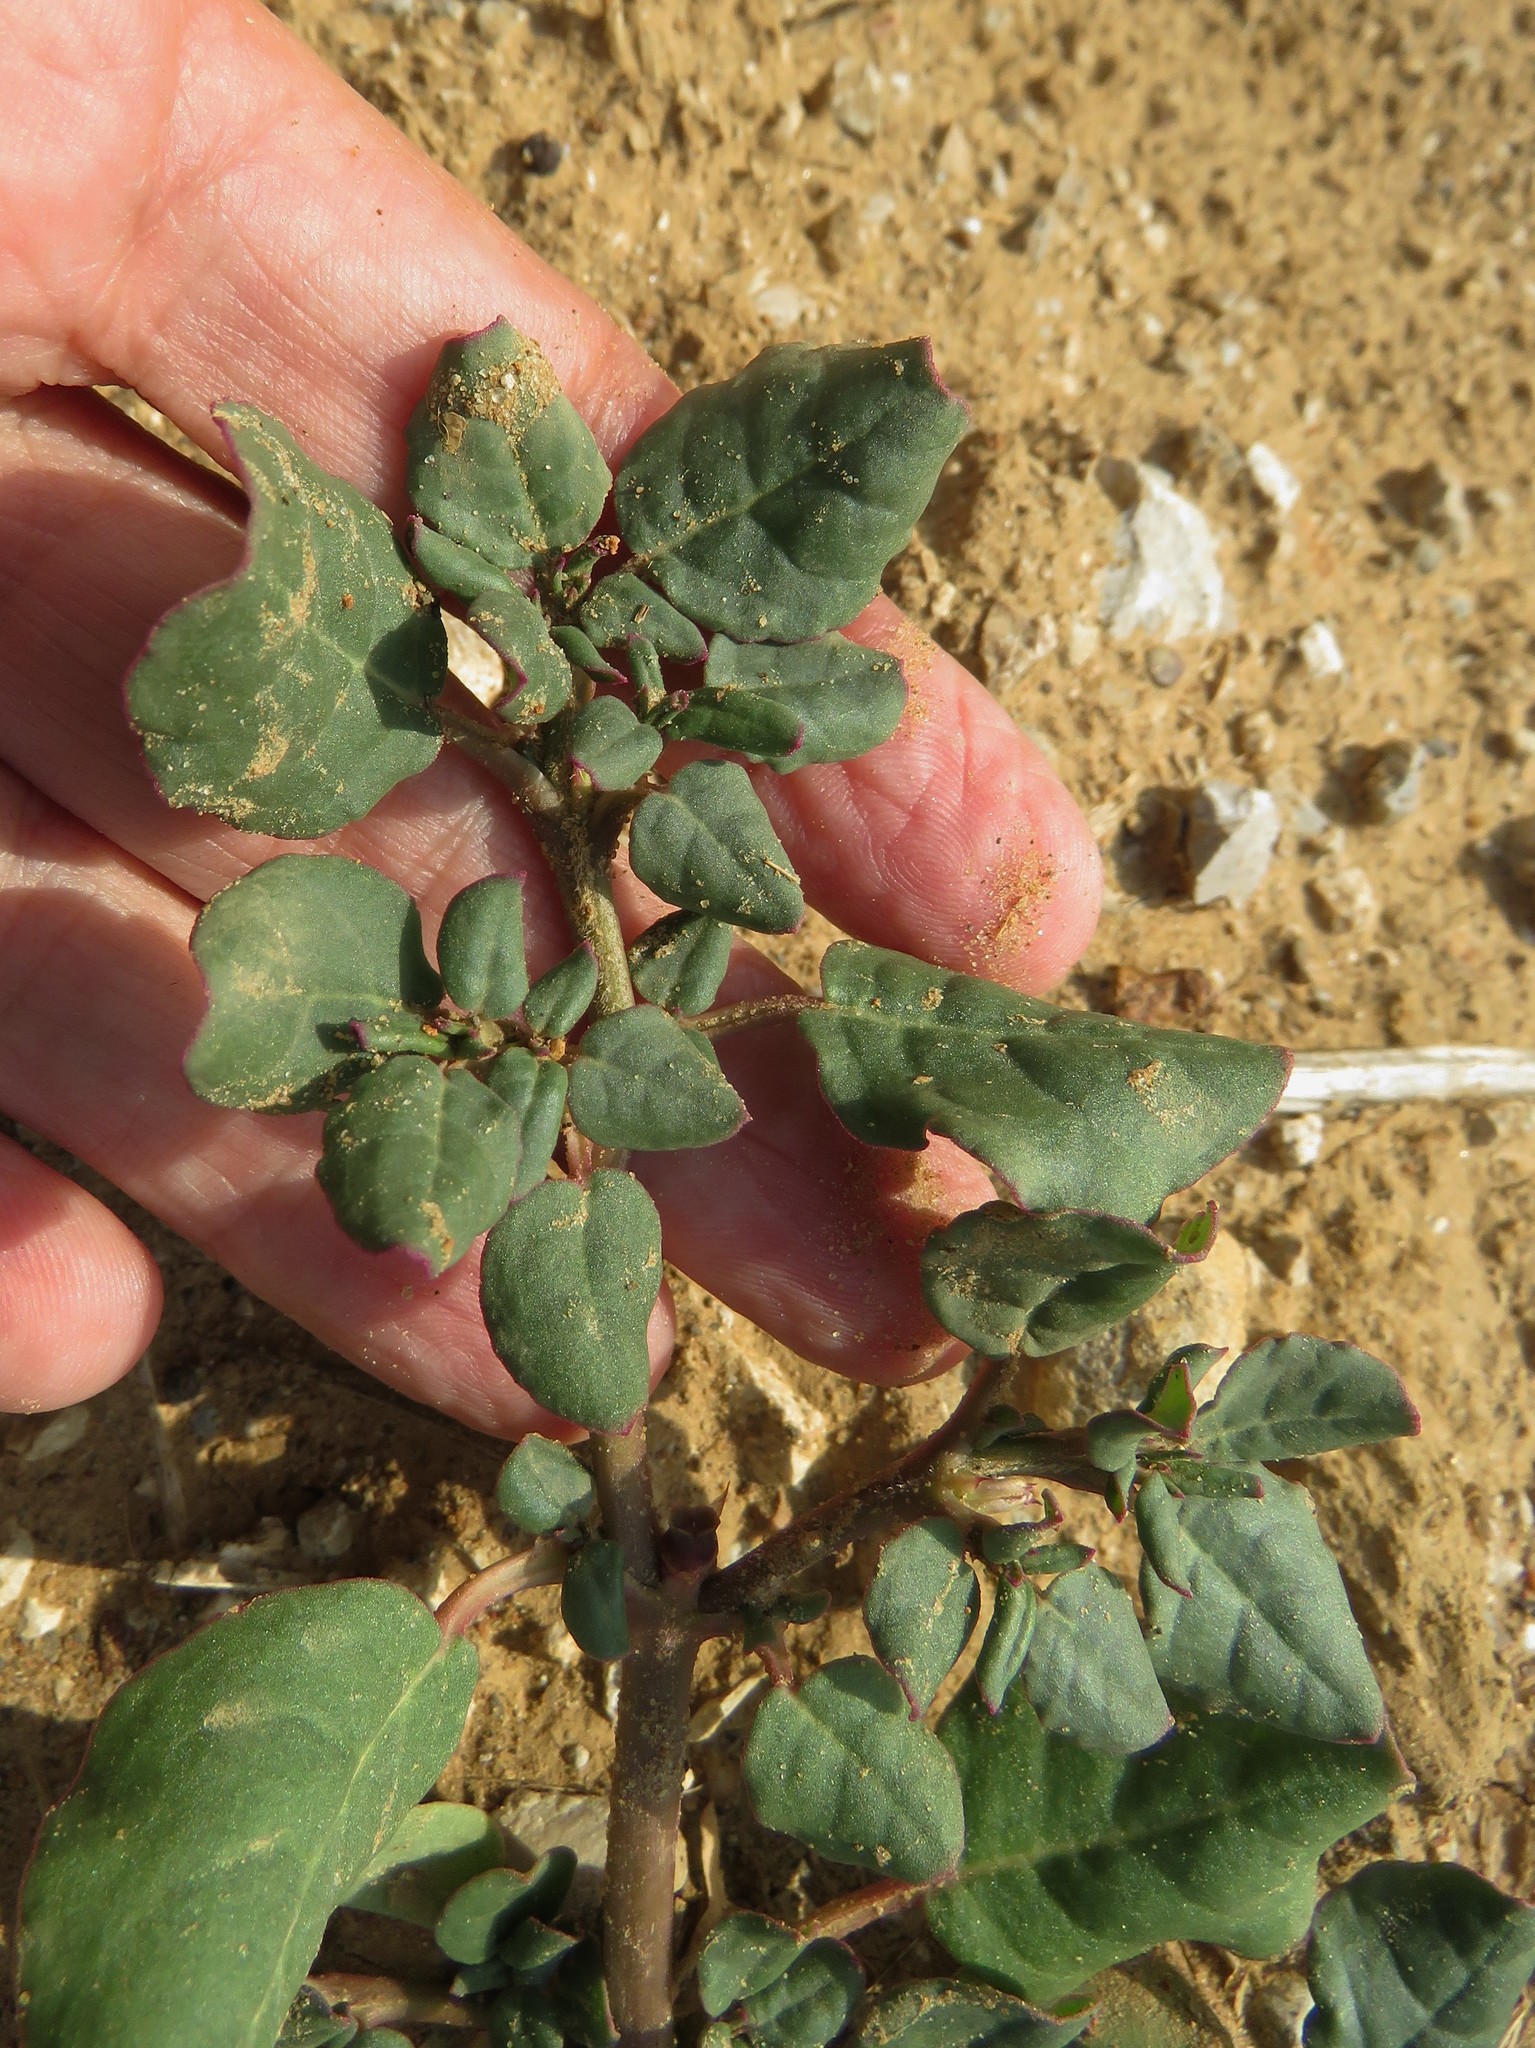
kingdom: Plantae
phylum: Tracheophyta
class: Magnoliopsida
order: Caryophyllales
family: Aizoaceae
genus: Trianthema
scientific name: Trianthema portulacastrum
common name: Desert horsepurslane
